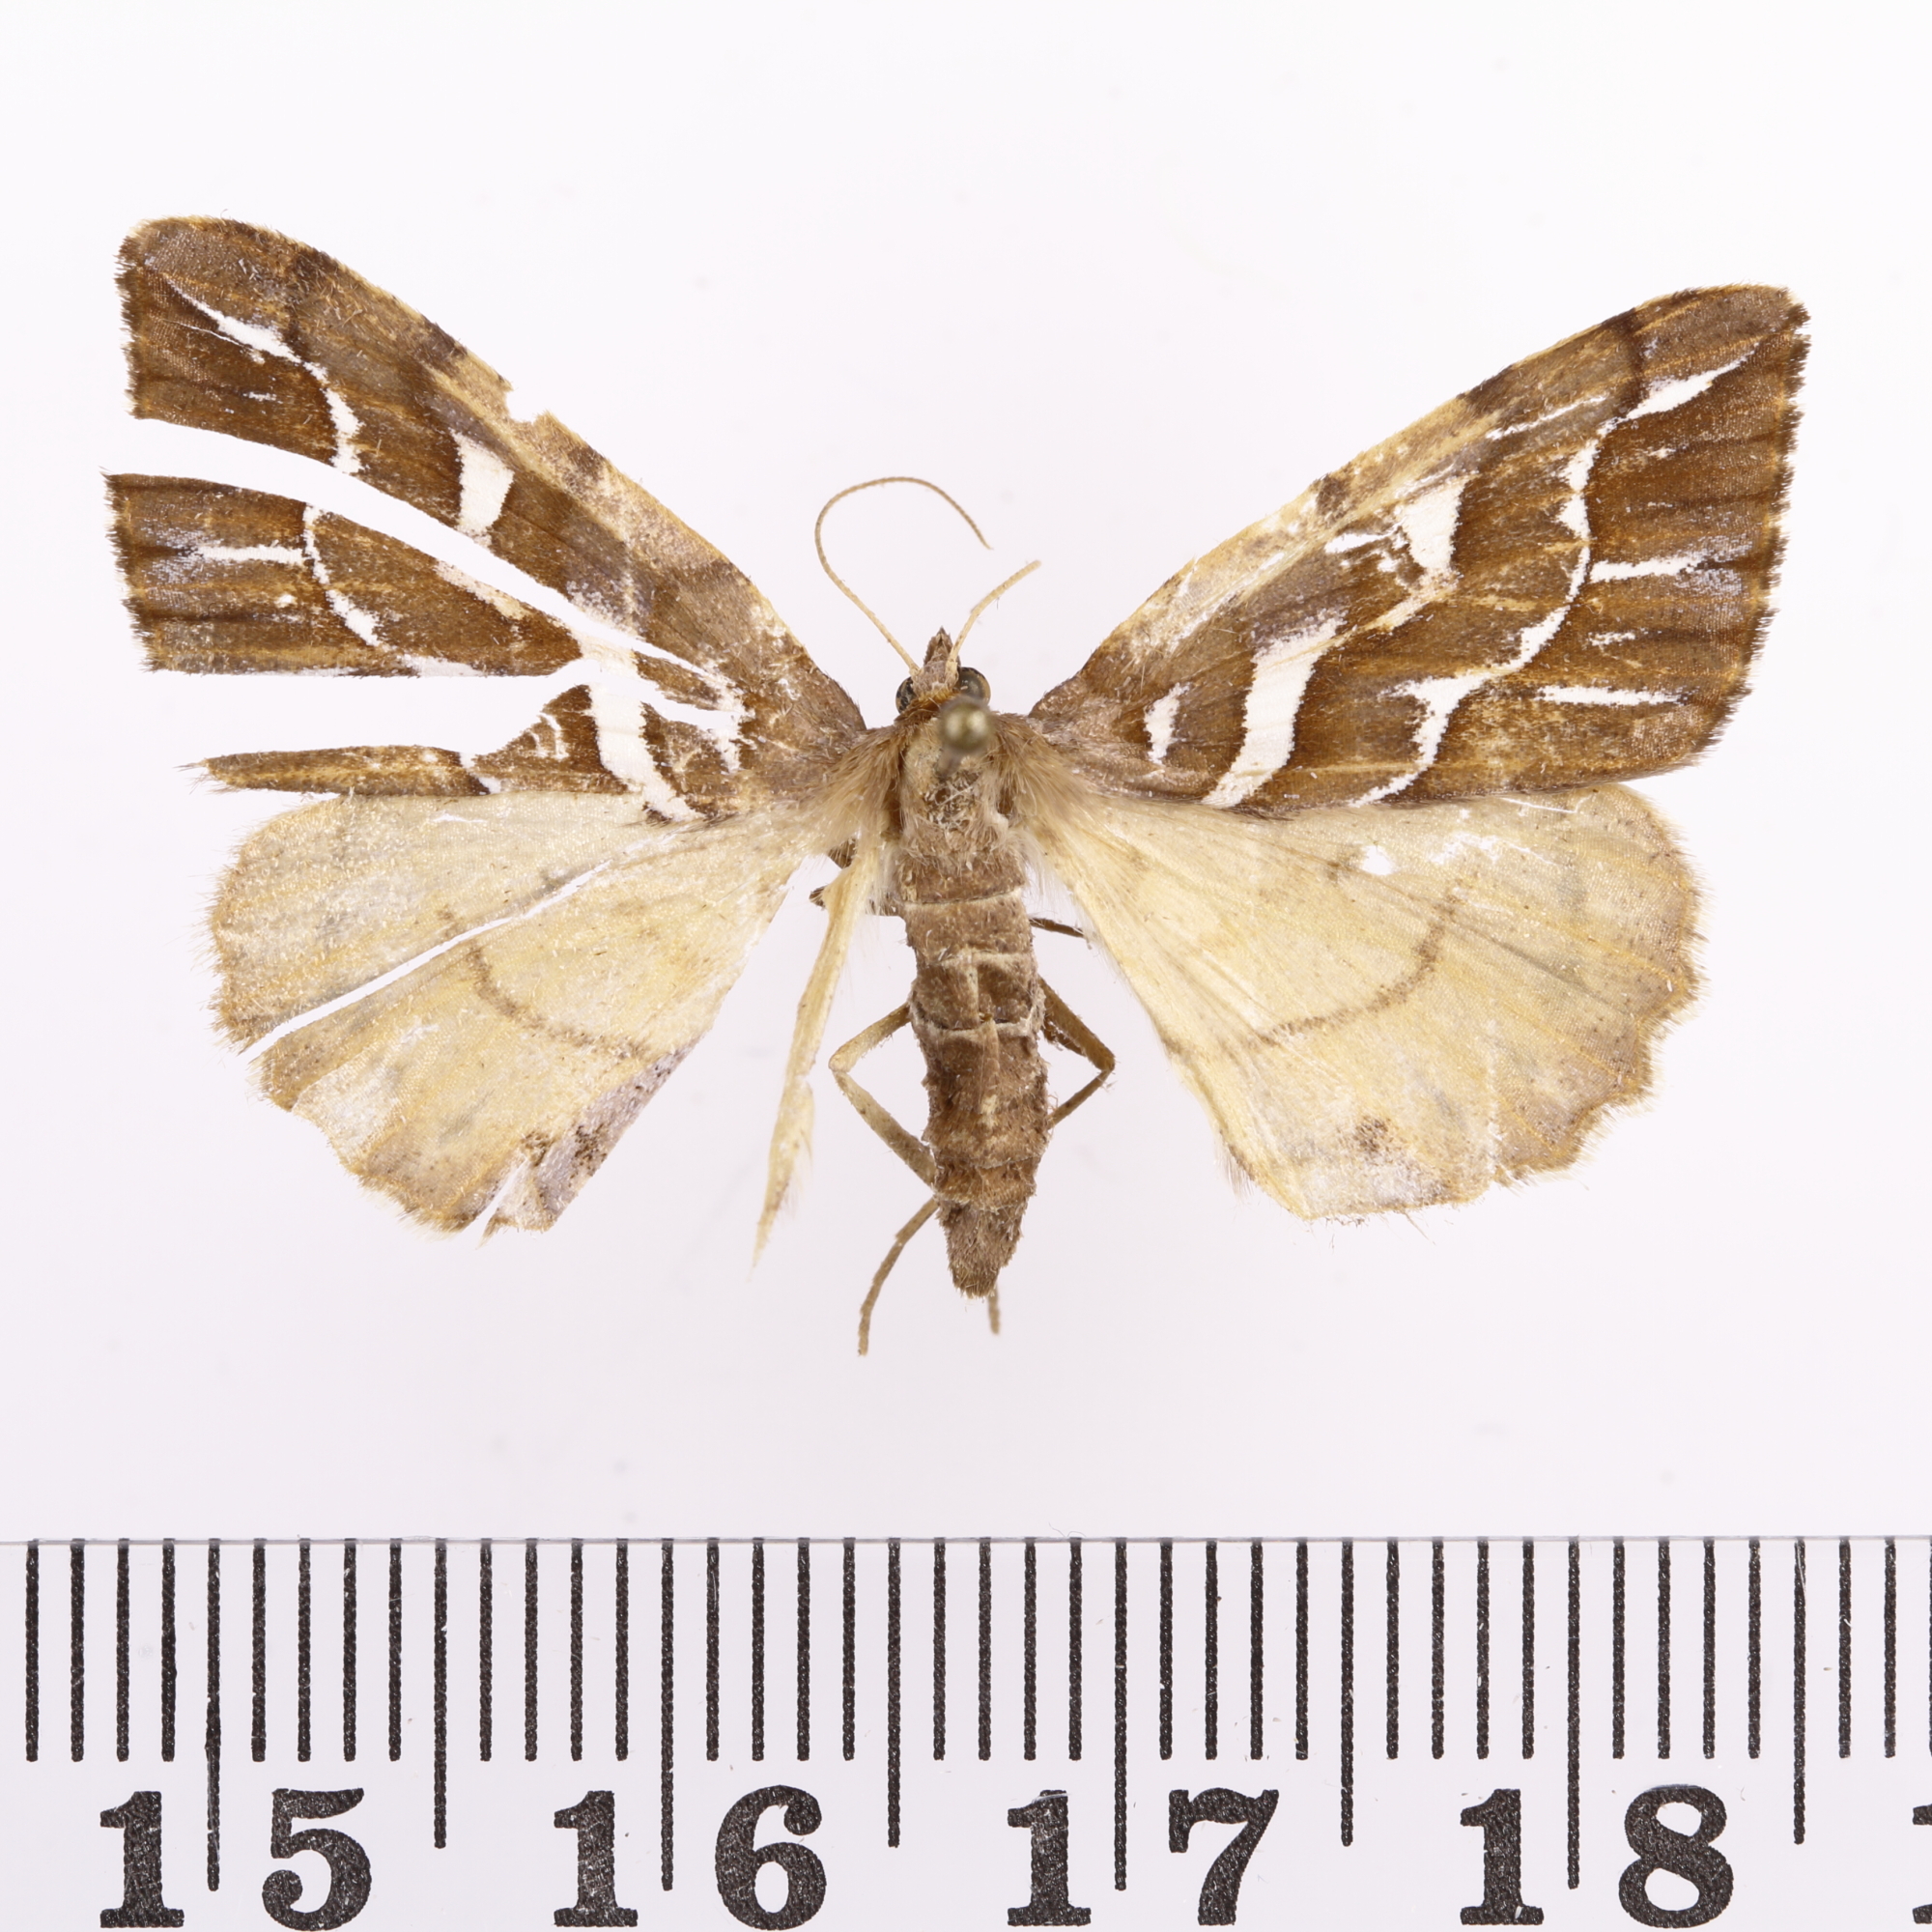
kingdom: Animalia
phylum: Arthropoda
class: Insecta
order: Lepidoptera
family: Geometridae
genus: Chalastra
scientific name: Chalastra aristarcha
